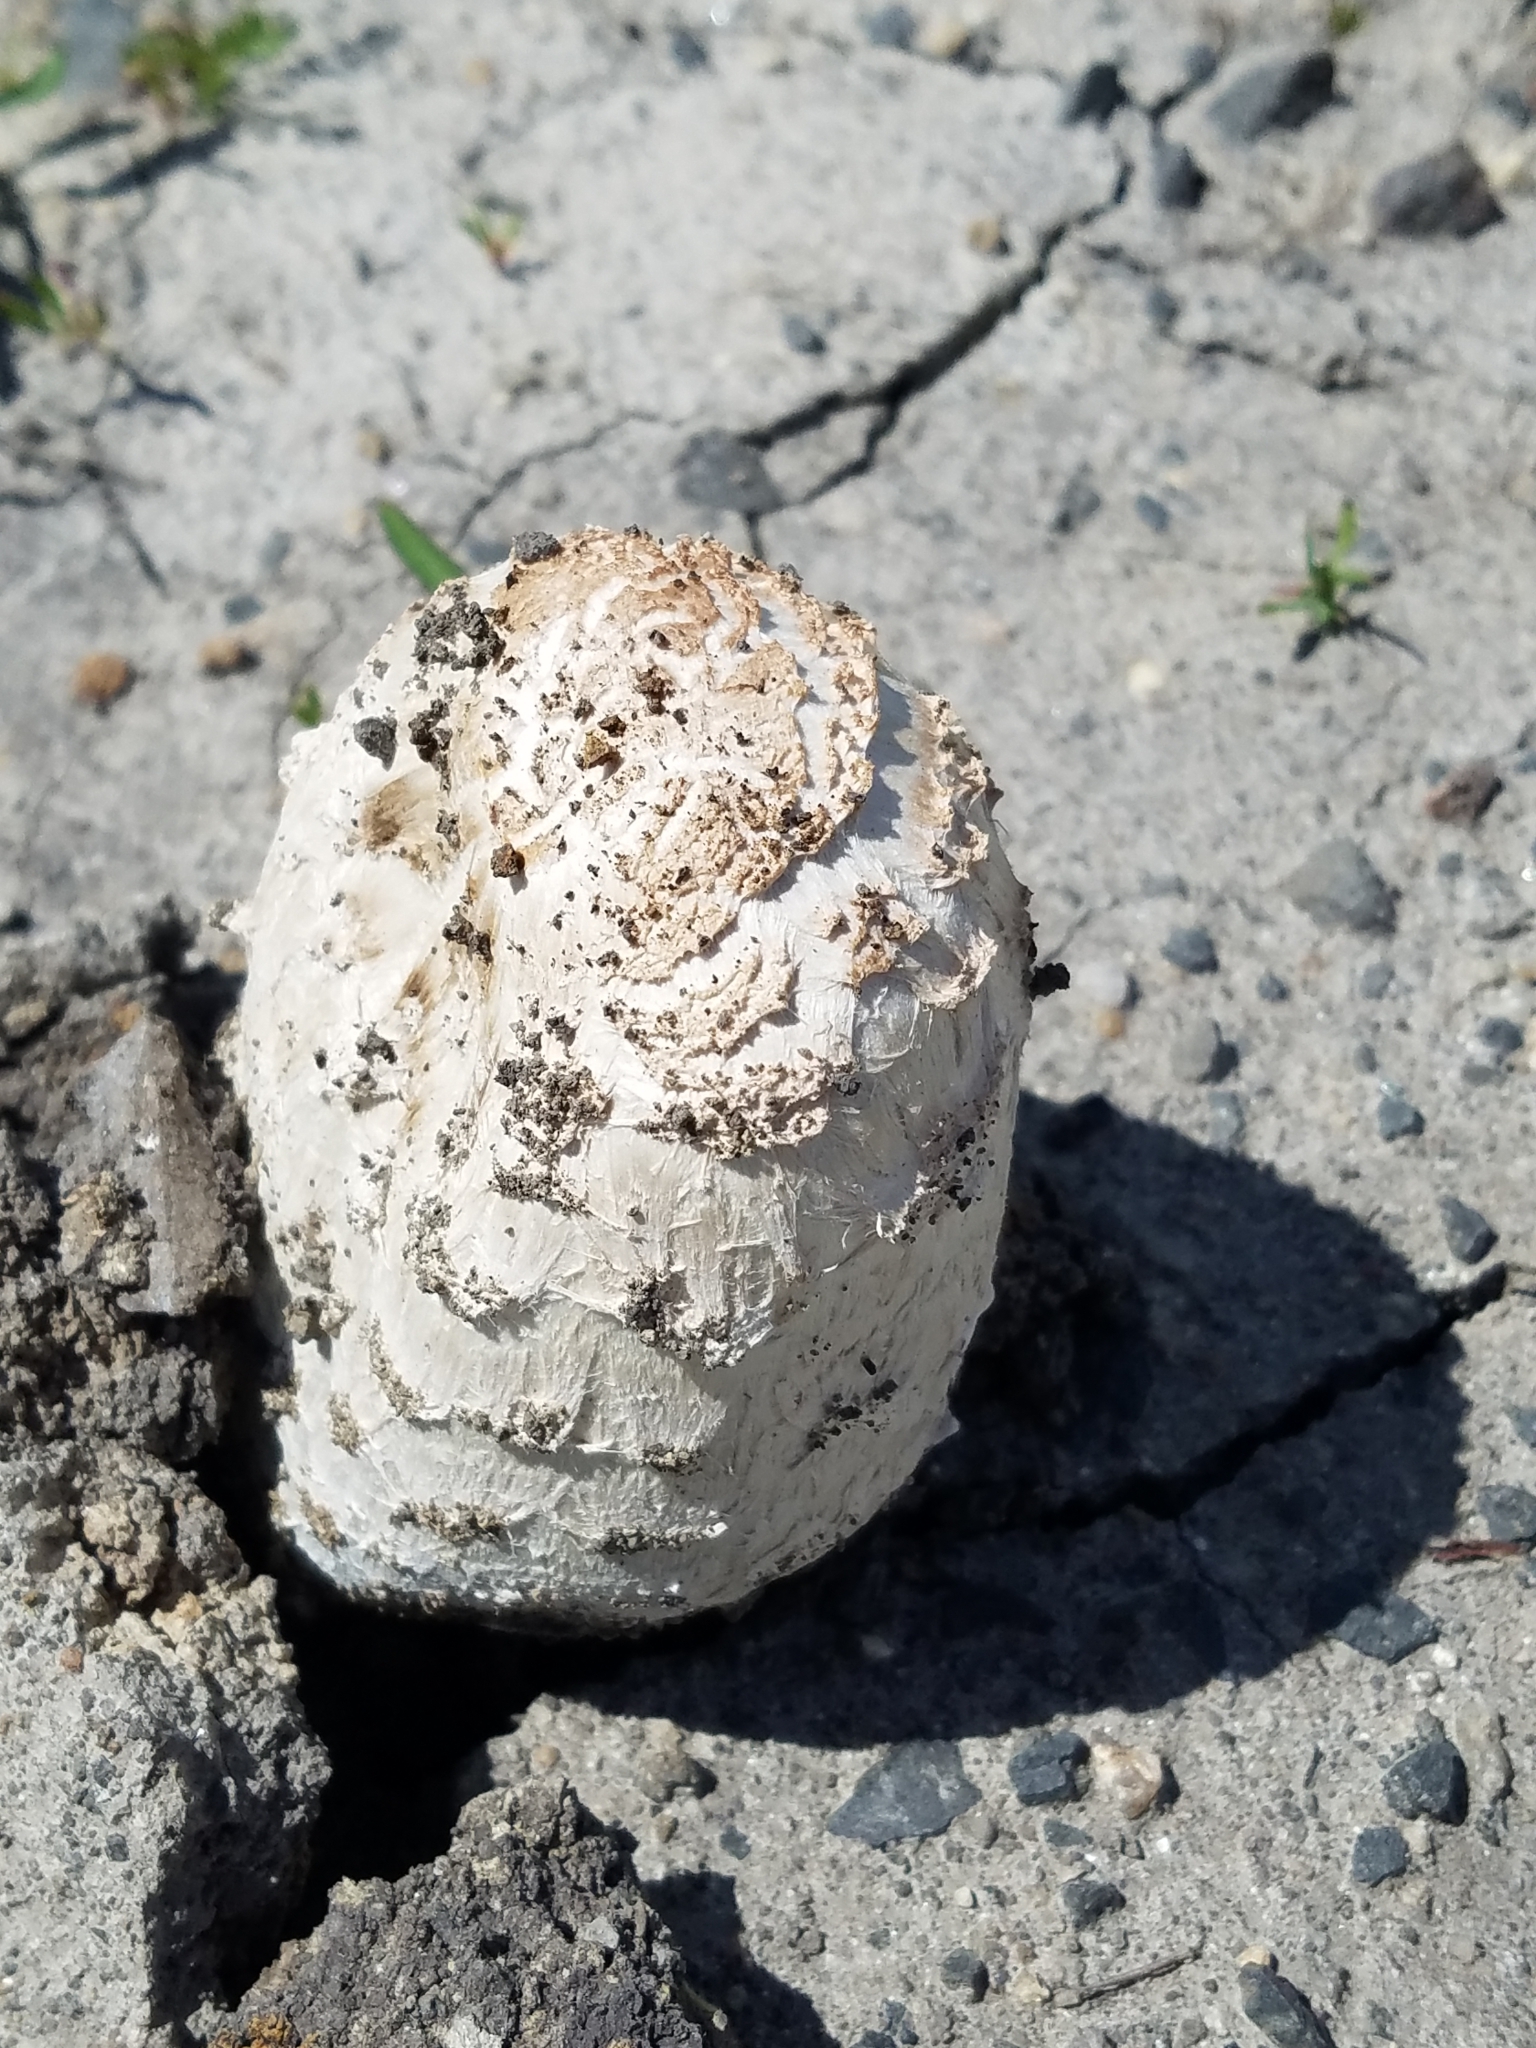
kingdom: Fungi
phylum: Basidiomycota
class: Agaricomycetes
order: Agaricales
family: Agaricaceae
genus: Coprinus
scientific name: Coprinus comatus
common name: Lawyer's wig
